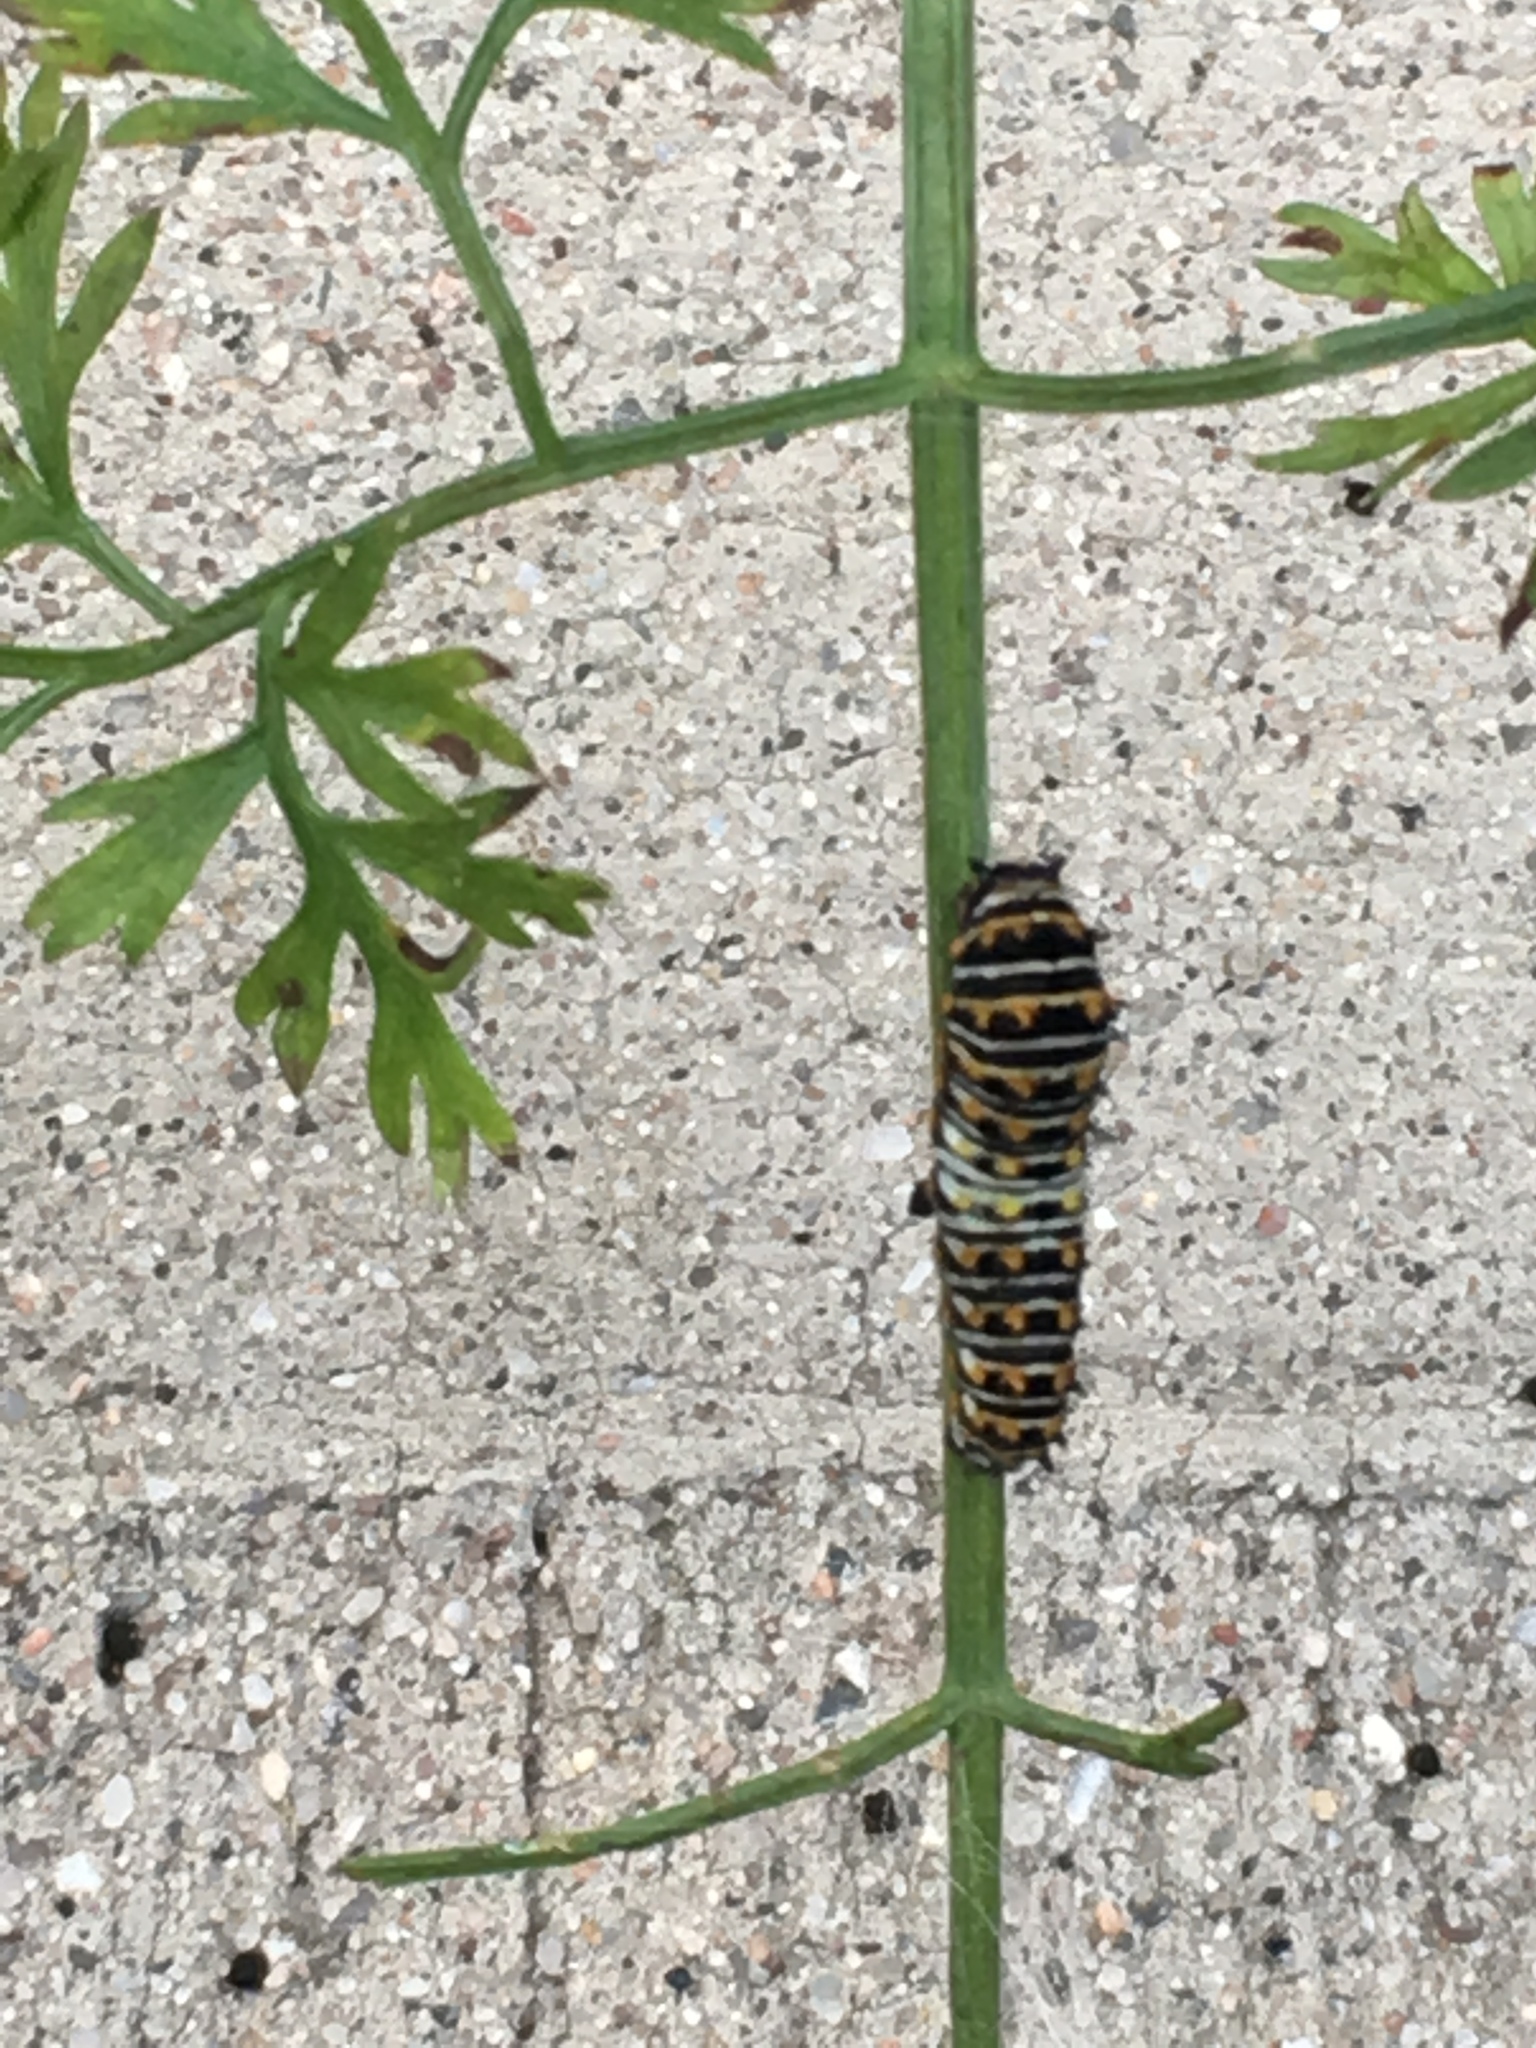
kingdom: Animalia
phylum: Arthropoda
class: Insecta
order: Lepidoptera
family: Papilionidae
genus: Papilio
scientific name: Papilio polyxenes
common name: Black swallowtail
